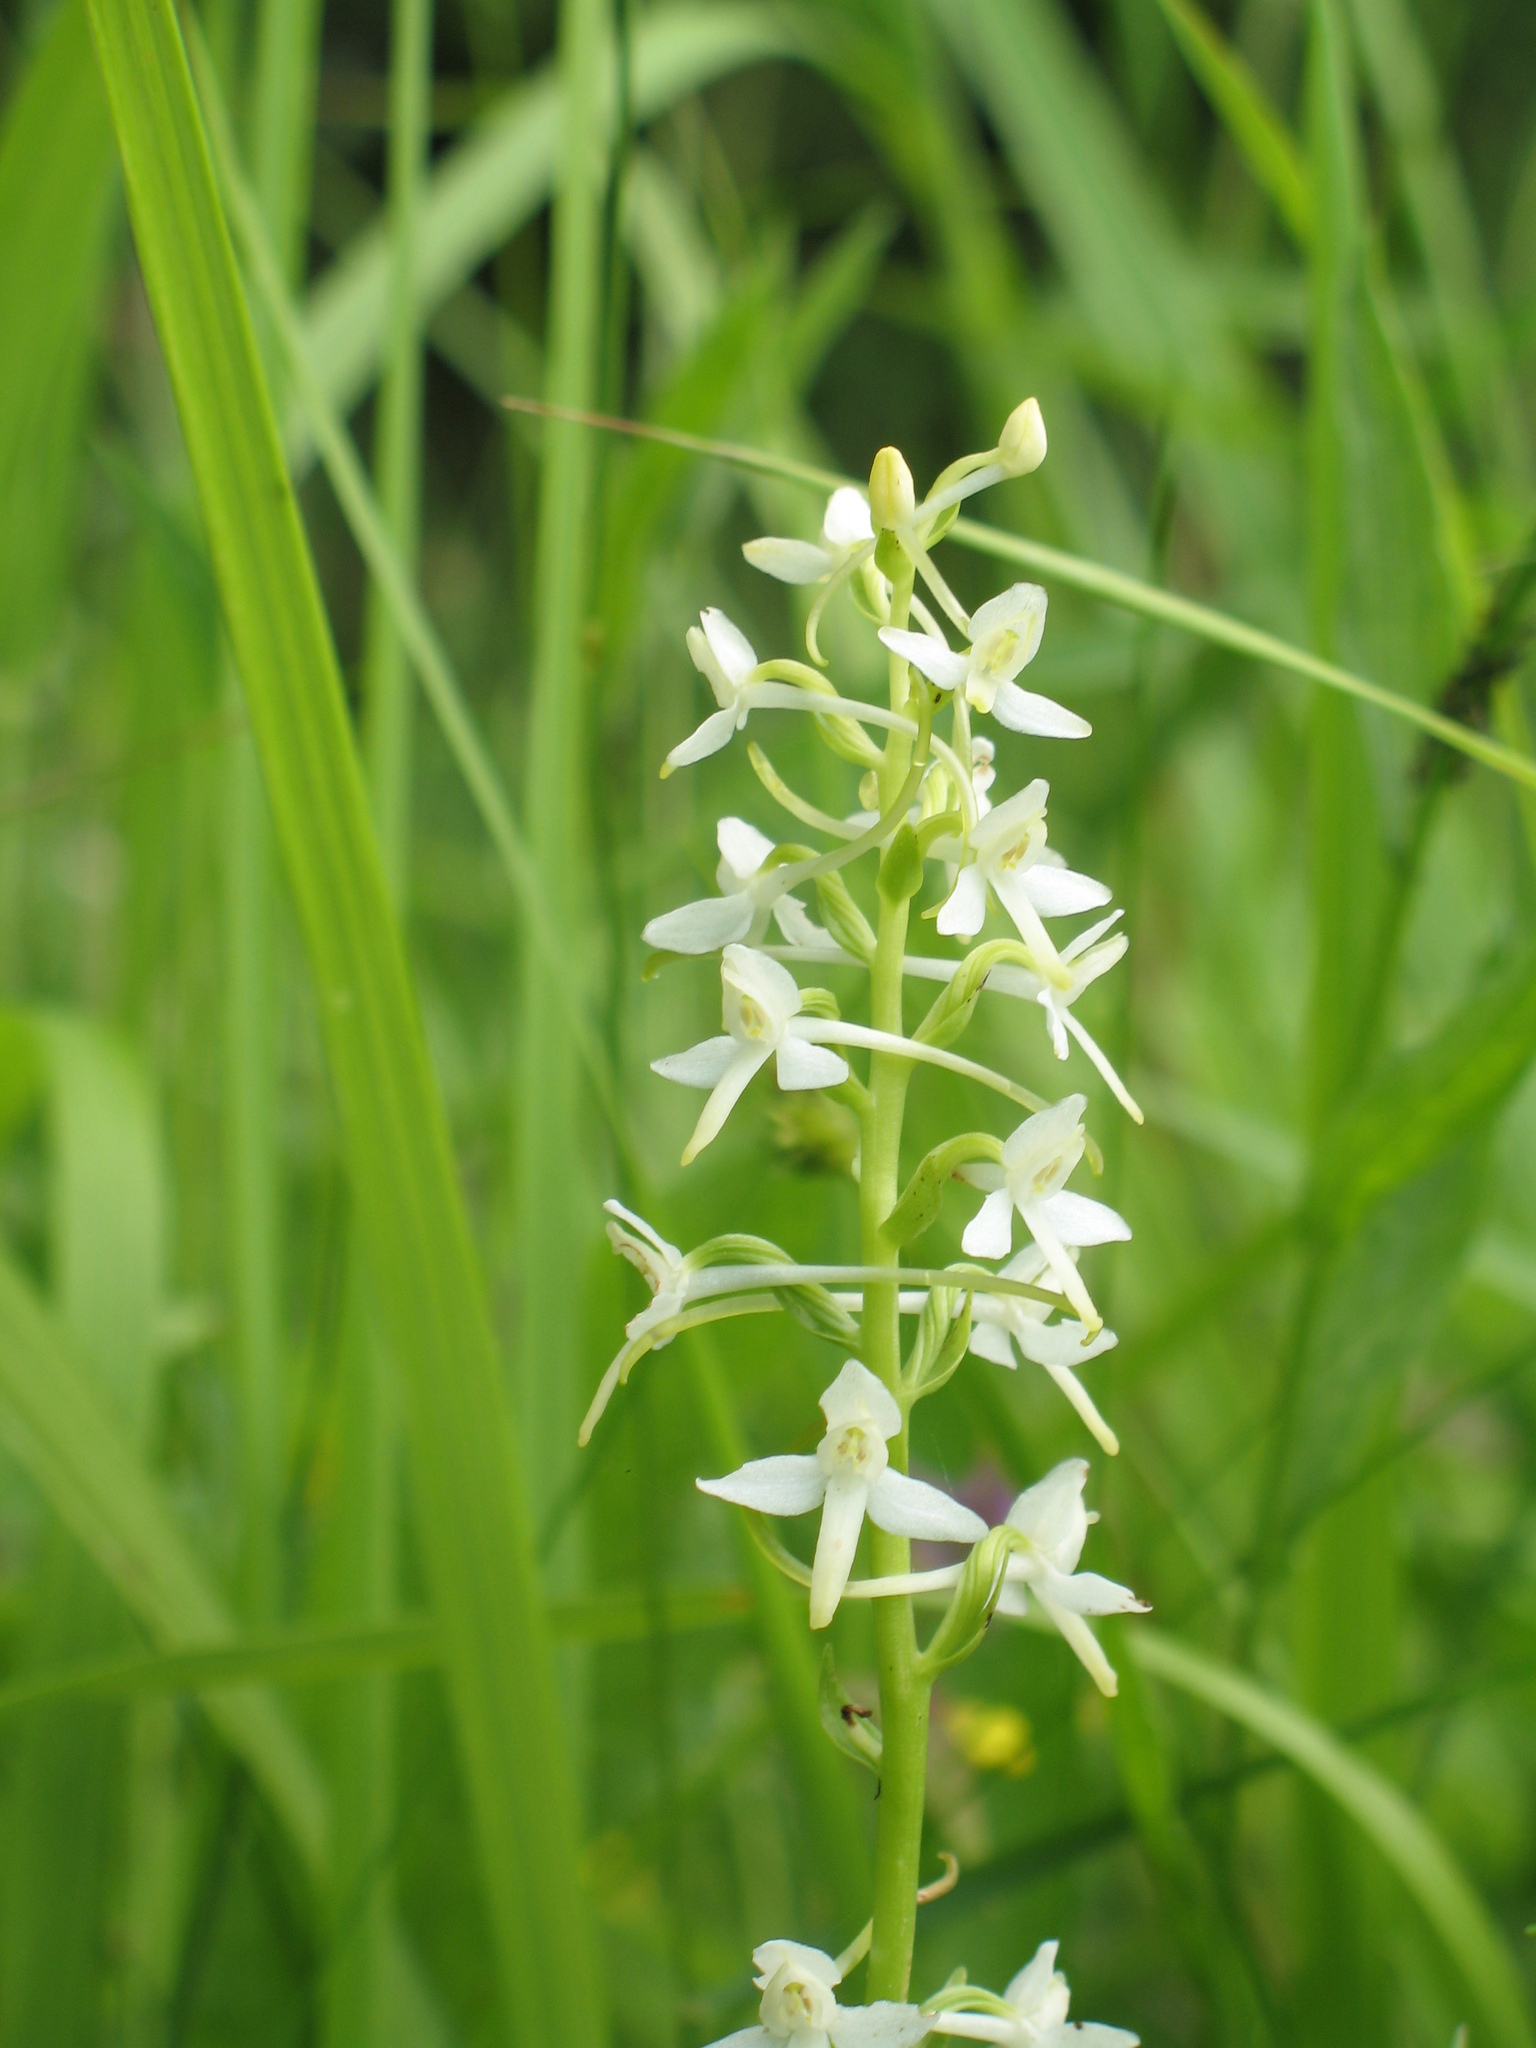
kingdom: Plantae
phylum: Tracheophyta
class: Liliopsida
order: Asparagales
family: Orchidaceae
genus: Platanthera
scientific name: Platanthera bifolia
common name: Lesser butterfly-orchid
